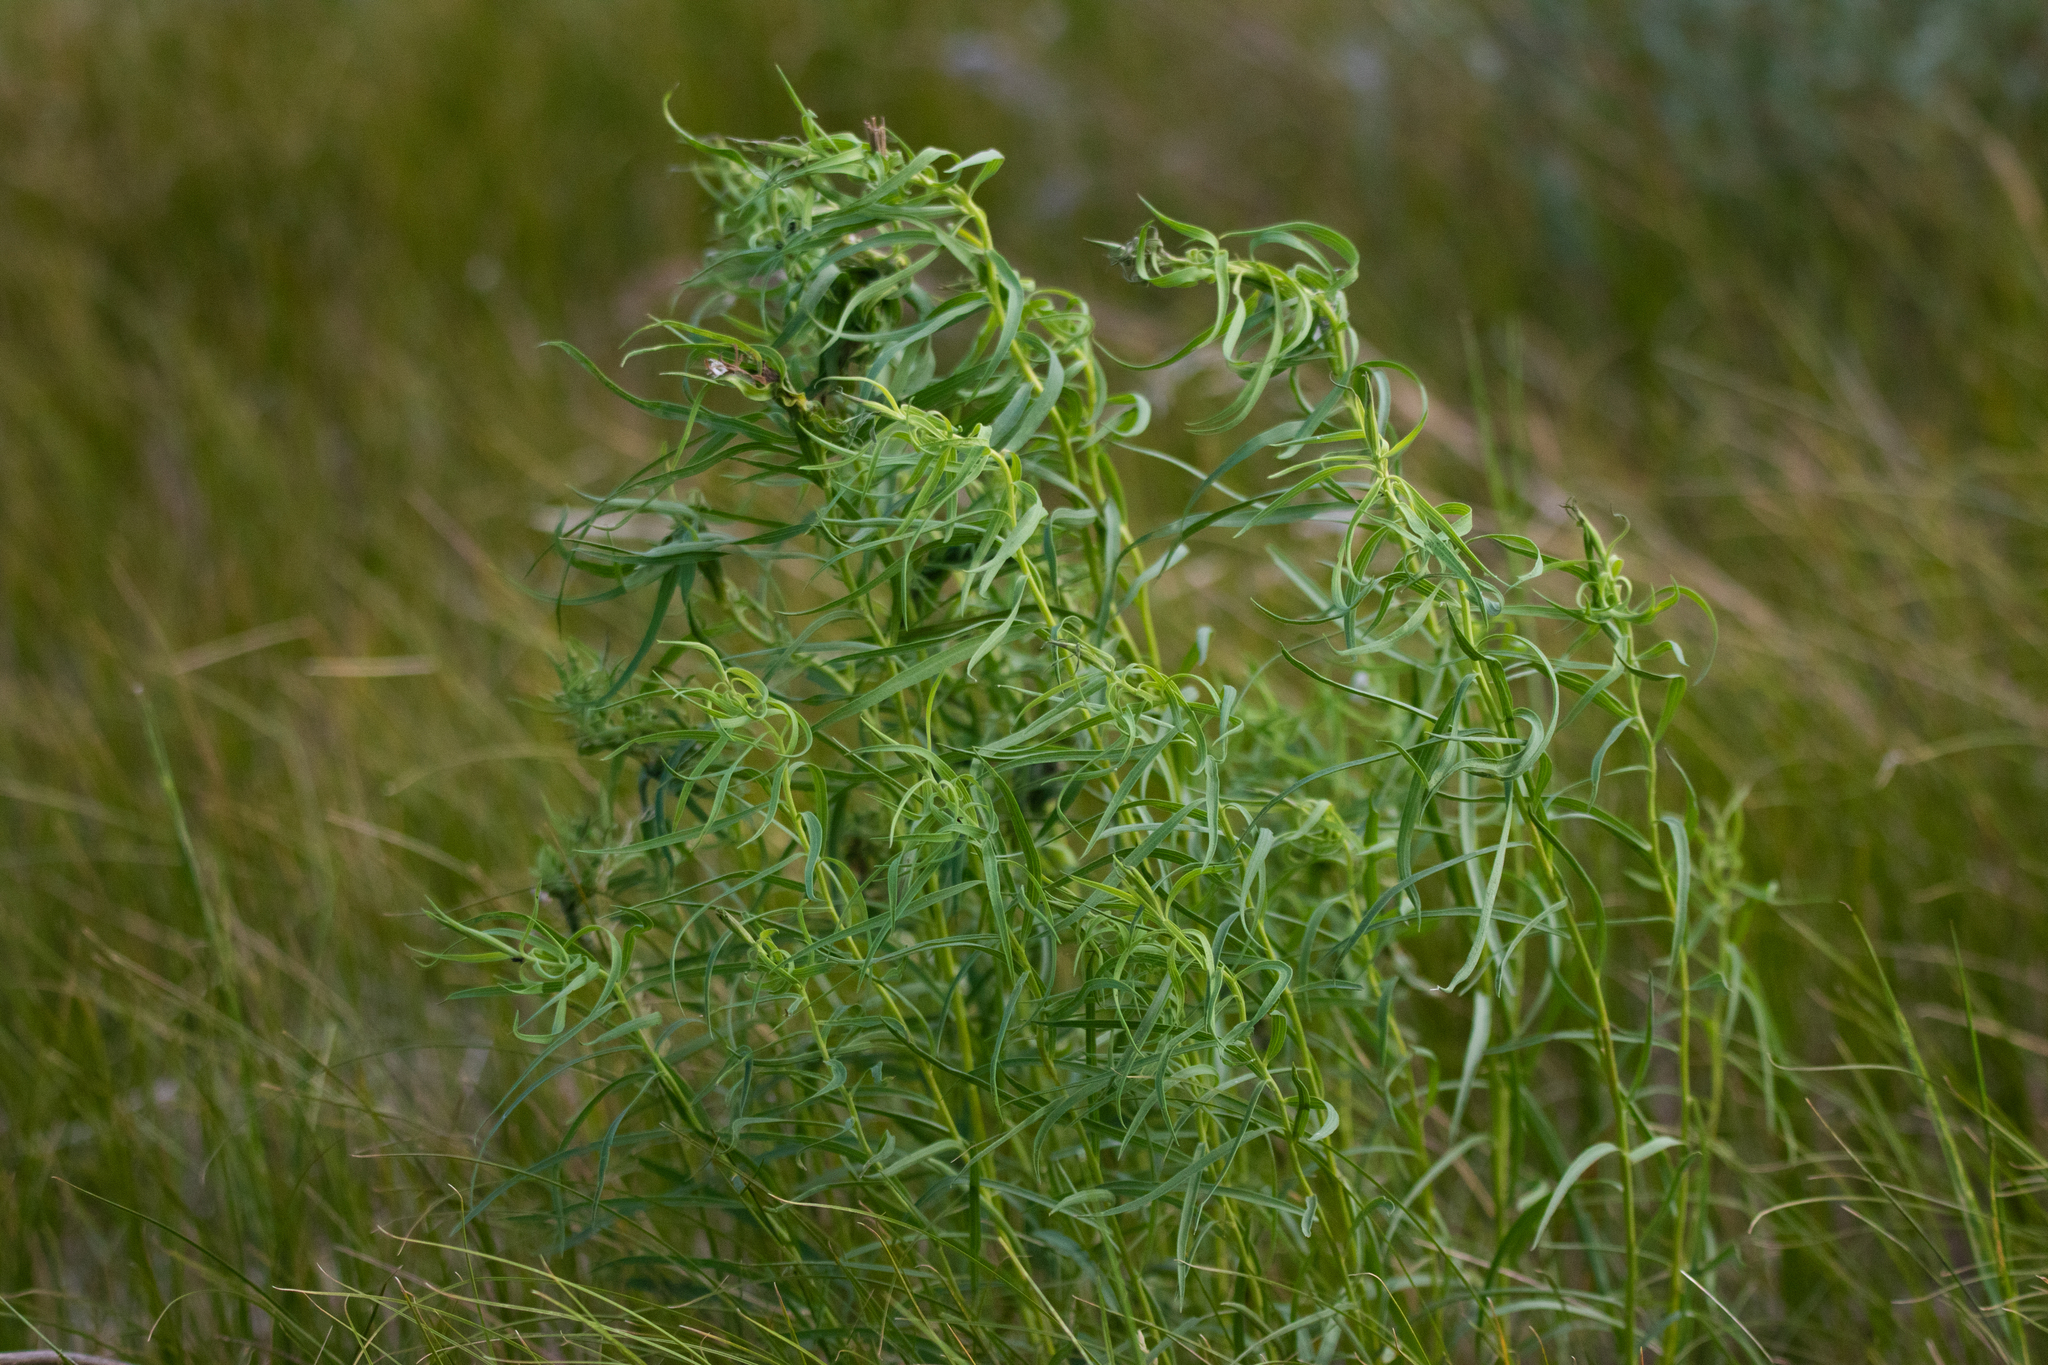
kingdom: Plantae
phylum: Tracheophyta
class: Magnoliopsida
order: Malpighiales
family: Euphorbiaceae
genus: Euphorbia
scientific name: Euphorbia virgata
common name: Leafy spurge
